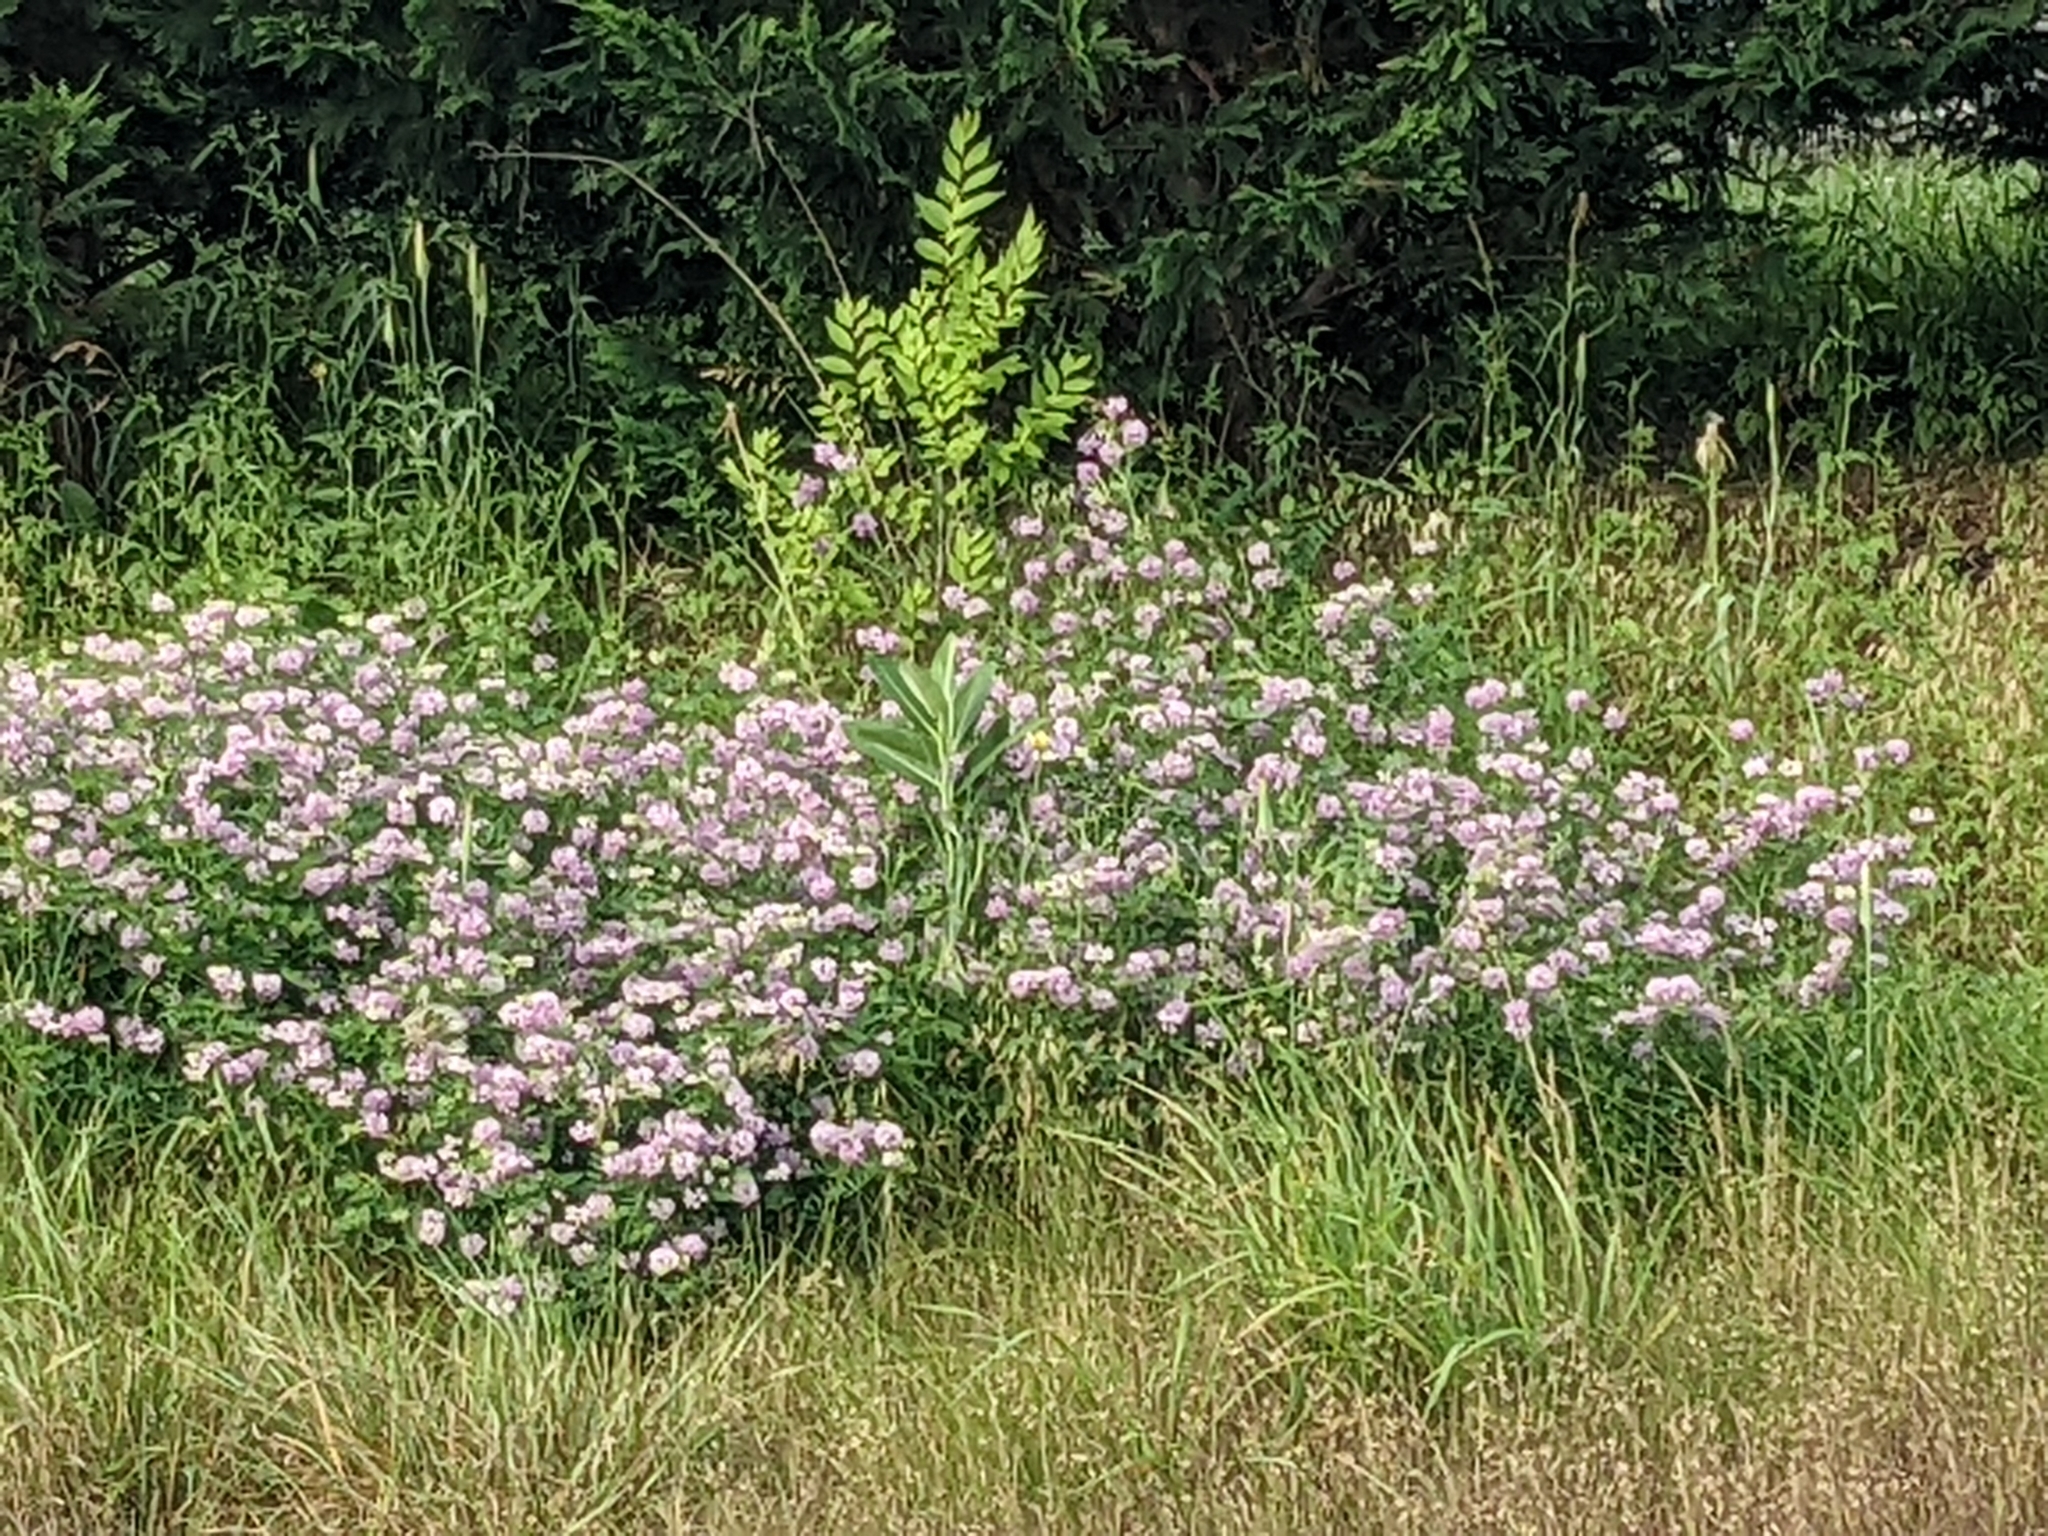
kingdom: Plantae
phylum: Tracheophyta
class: Magnoliopsida
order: Fabales
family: Fabaceae
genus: Coronilla
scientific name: Coronilla varia
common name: Crownvetch
